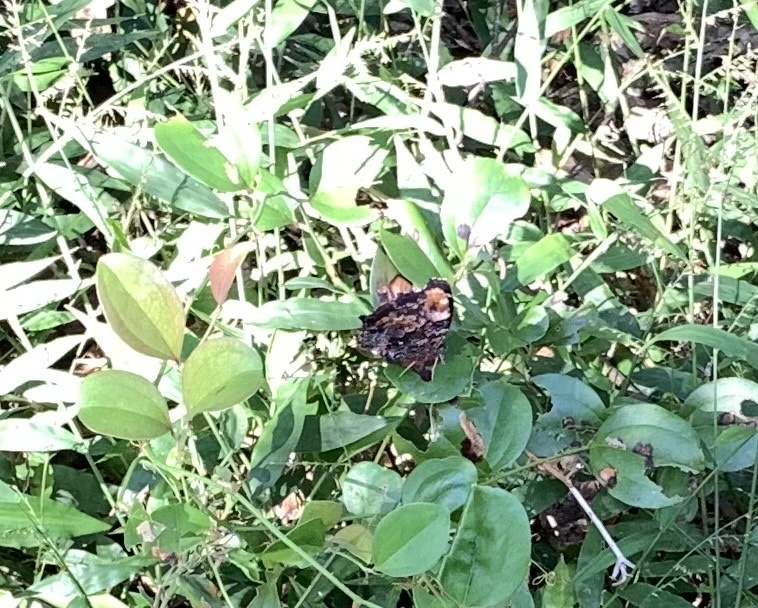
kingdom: Animalia
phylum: Arthropoda
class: Insecta
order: Lepidoptera
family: Nymphalidae
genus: Vanessa
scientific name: Vanessa Kaniska canace
